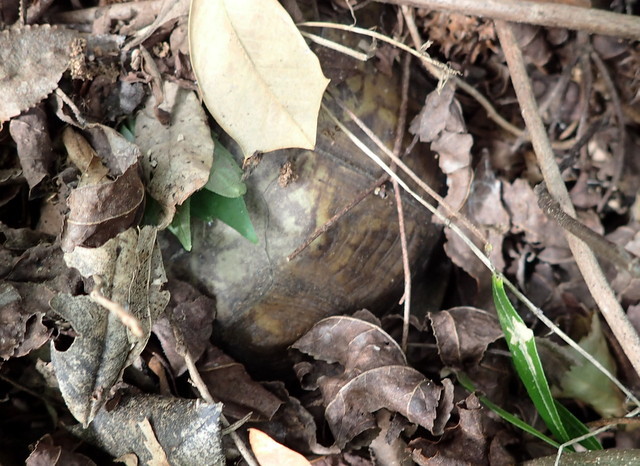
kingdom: Animalia
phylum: Chordata
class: Testudines
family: Emydidae
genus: Terrapene
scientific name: Terrapene carolina
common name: Common box turtle
